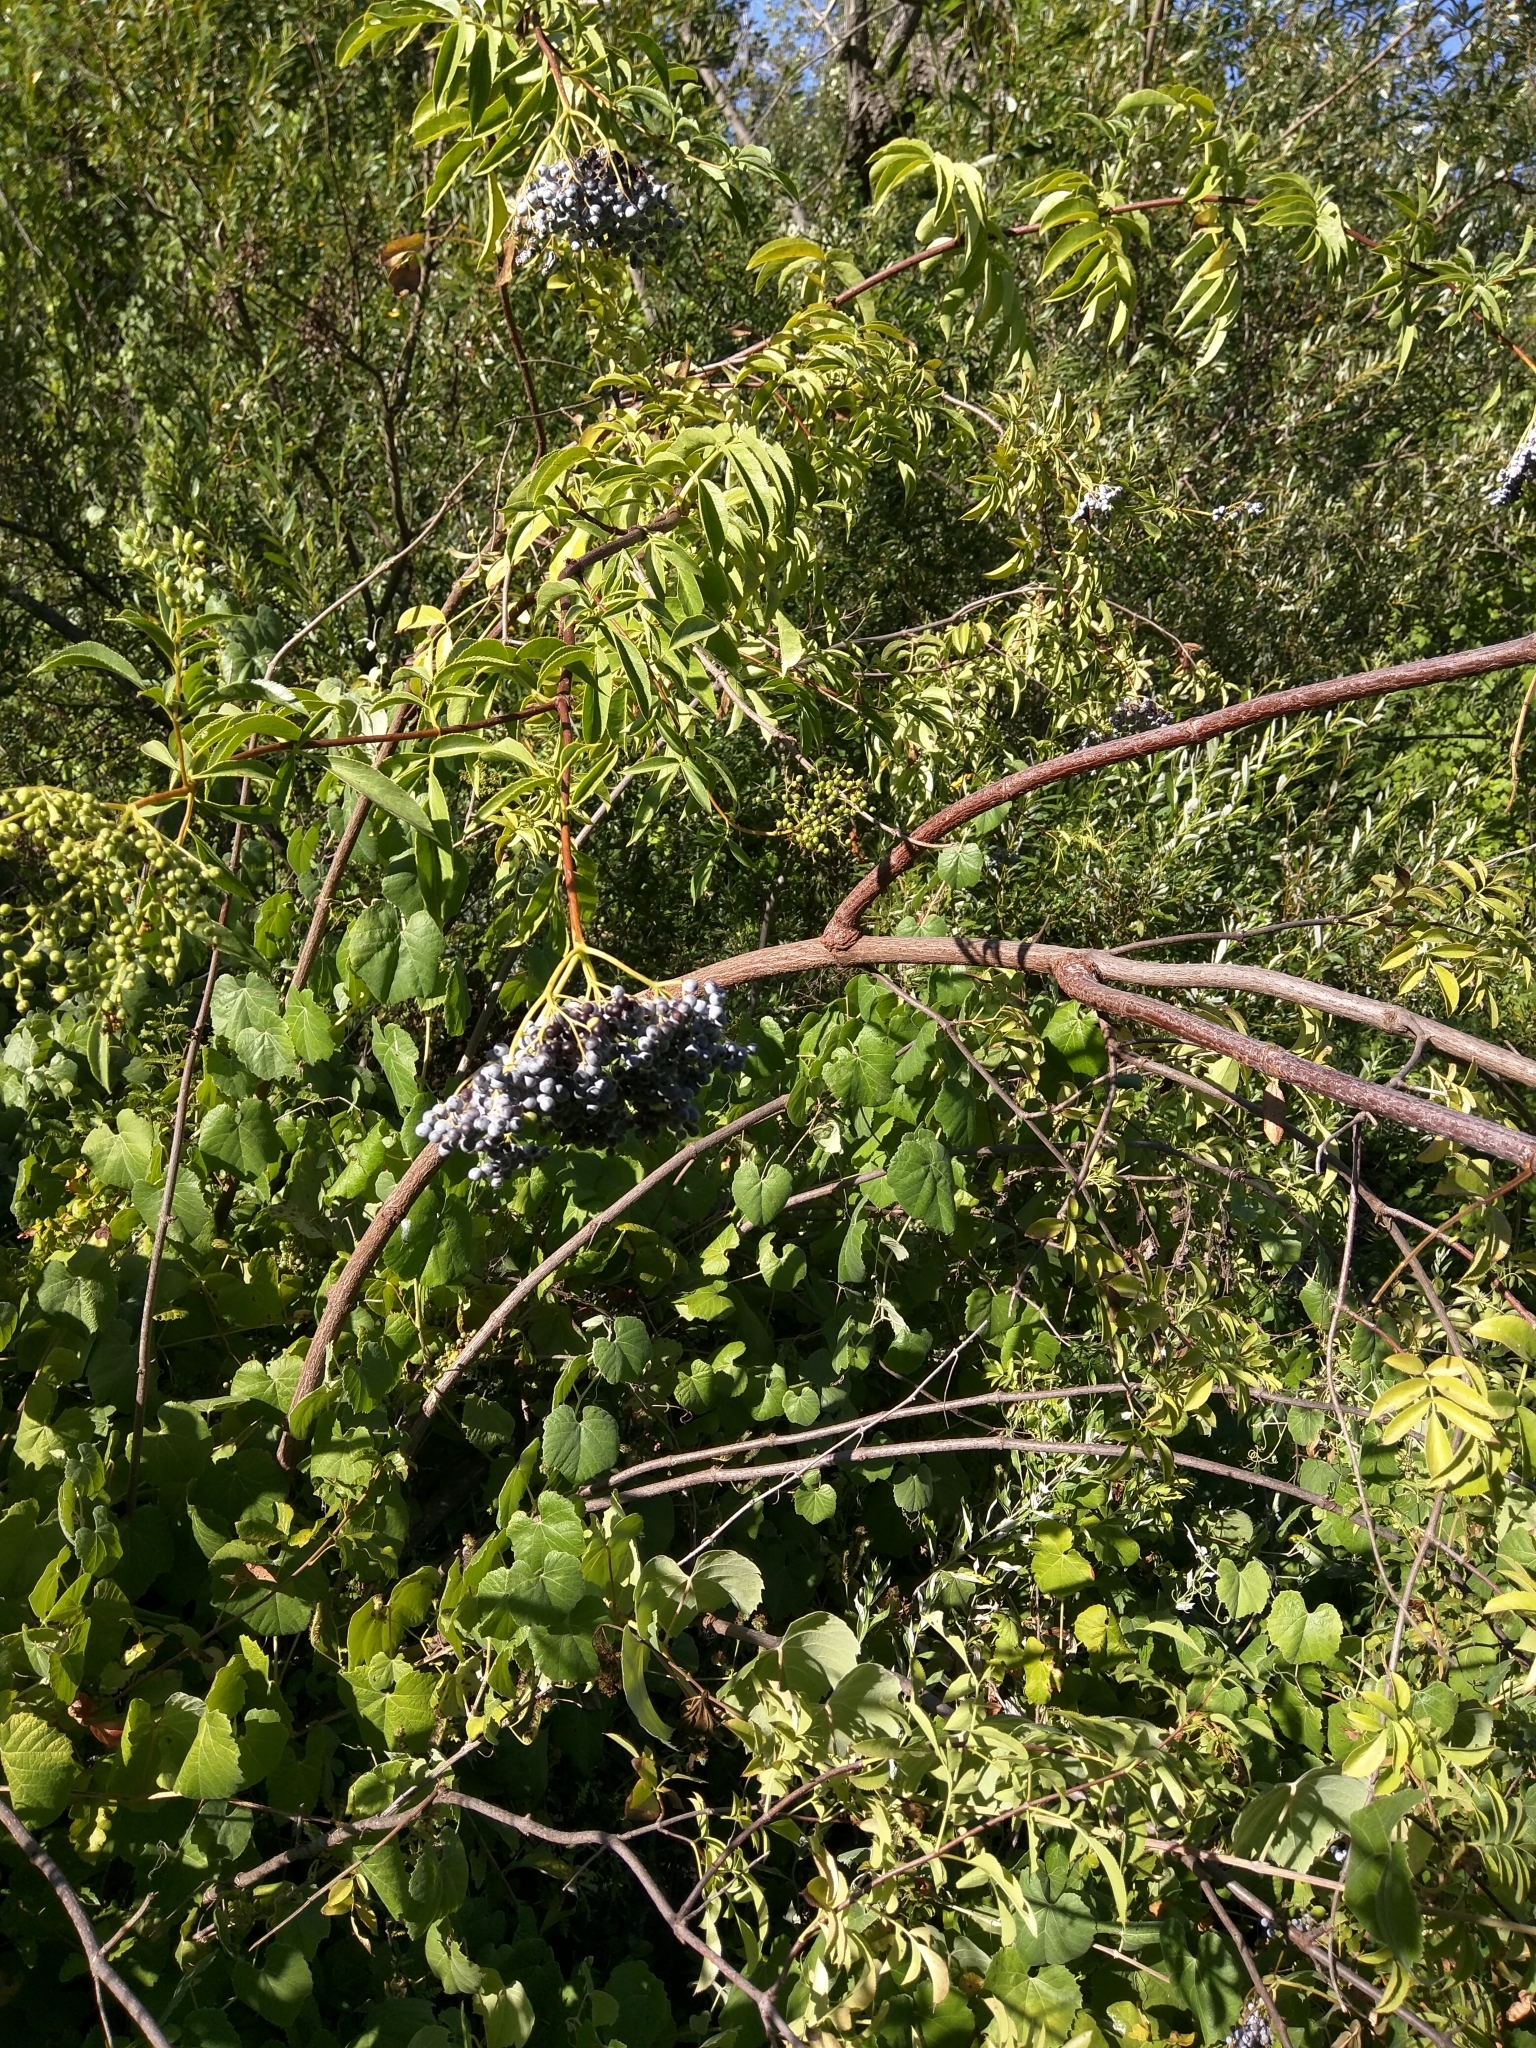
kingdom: Plantae
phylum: Tracheophyta
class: Magnoliopsida
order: Dipsacales
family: Viburnaceae
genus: Sambucus
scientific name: Sambucus cerulea
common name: Blue elder
